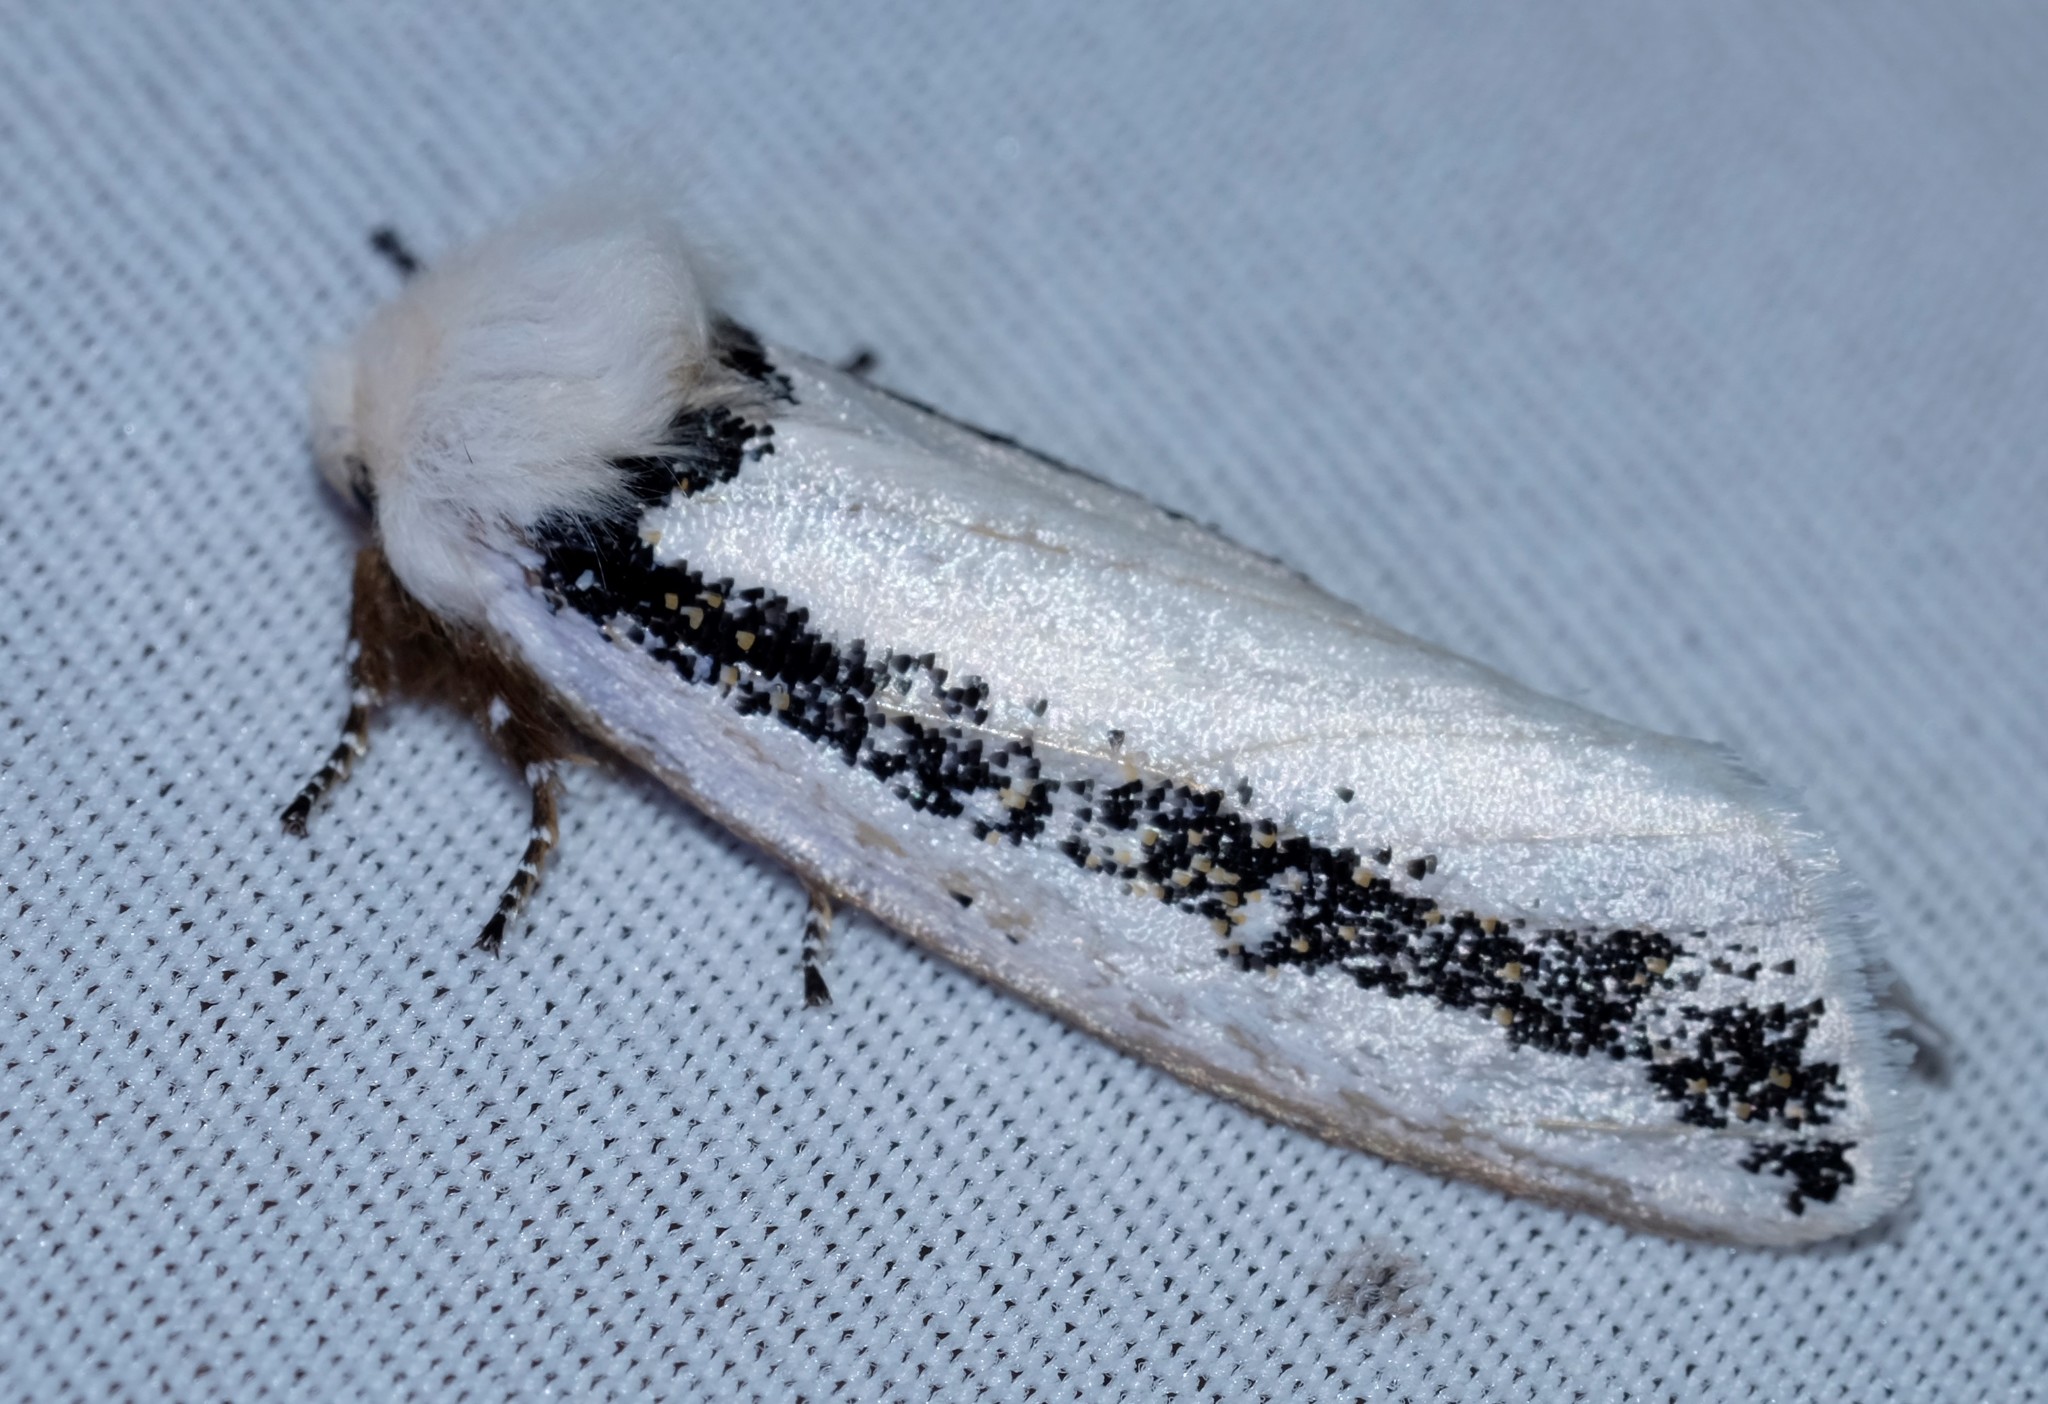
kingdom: Animalia
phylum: Arthropoda
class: Insecta
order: Lepidoptera
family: Oenosandridae
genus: Oenosandra
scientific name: Oenosandra boisduvalii
